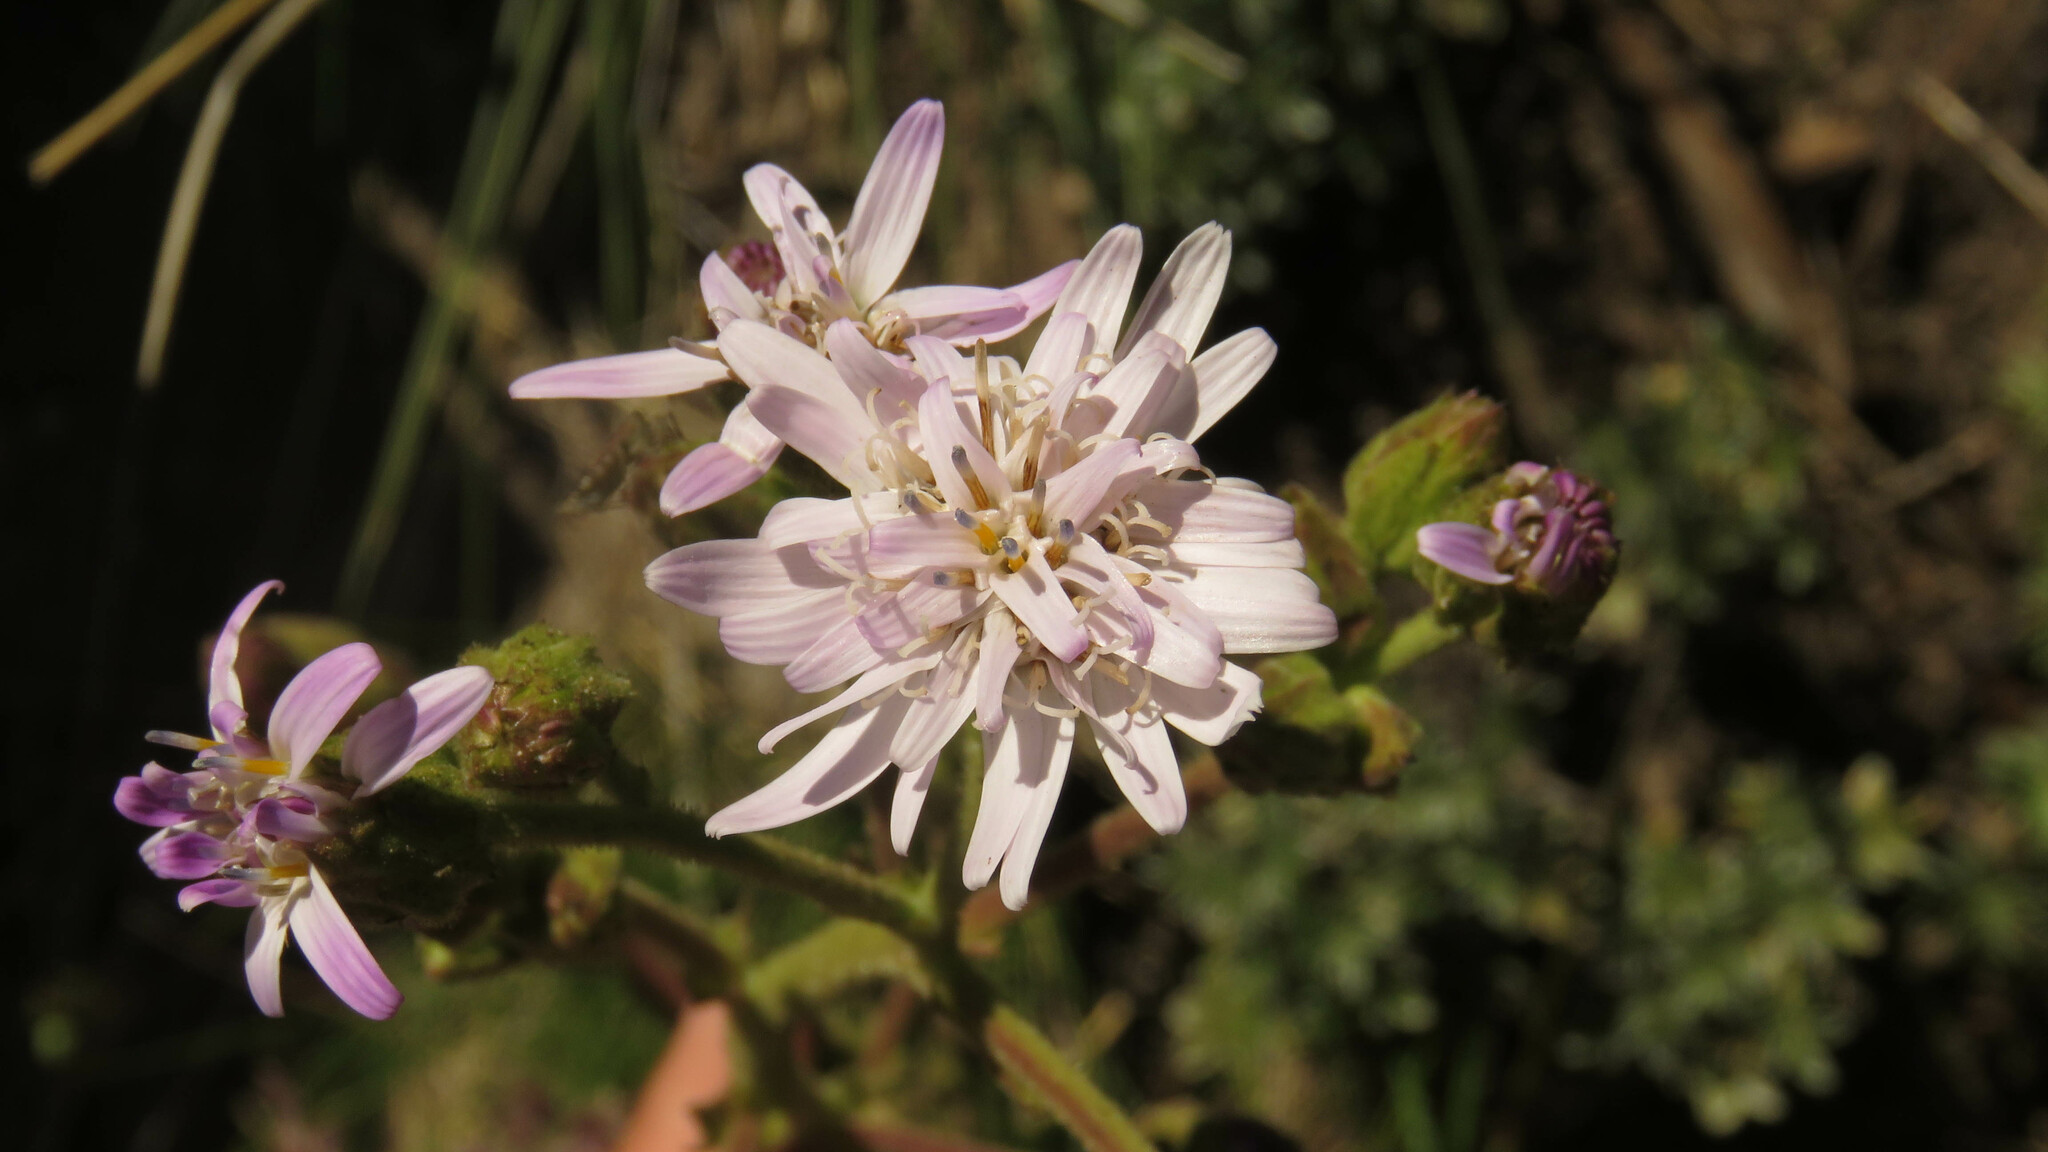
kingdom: Plantae
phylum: Tracheophyta
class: Magnoliopsida
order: Asterales
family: Asteraceae
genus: Leucheria
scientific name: Leucheria glacialis
